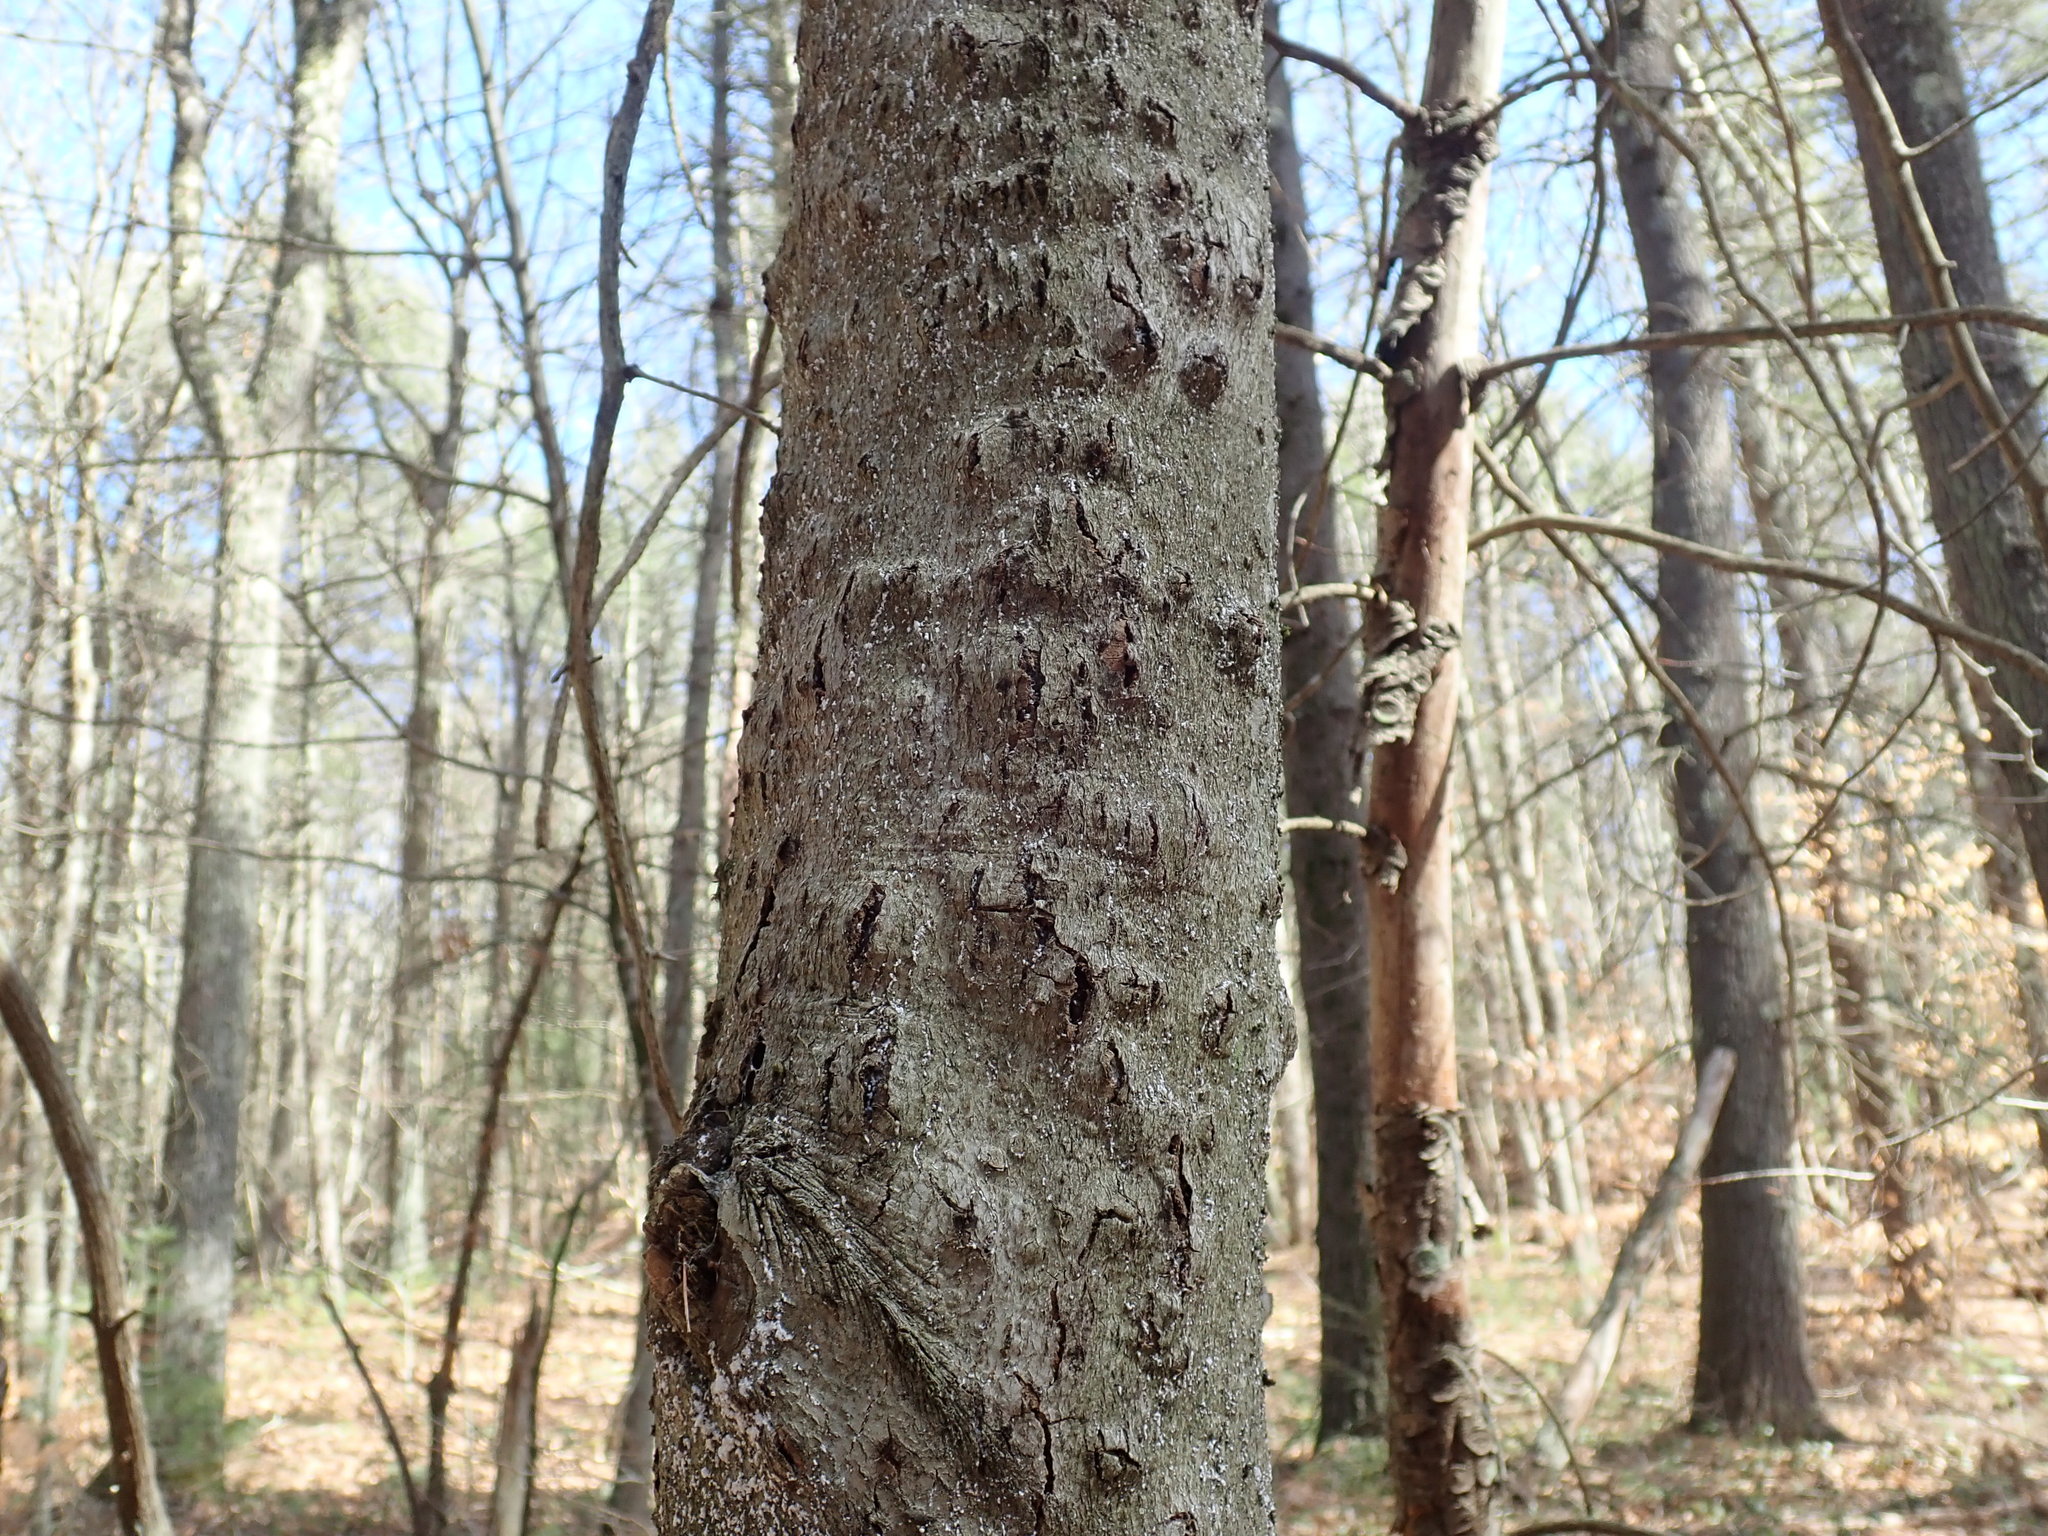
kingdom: Fungi
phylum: Ascomycota
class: Sordariomycetes
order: Hypocreales
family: Nectriaceae
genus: Neonectria
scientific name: Neonectria faginata
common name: Beech bark canker
